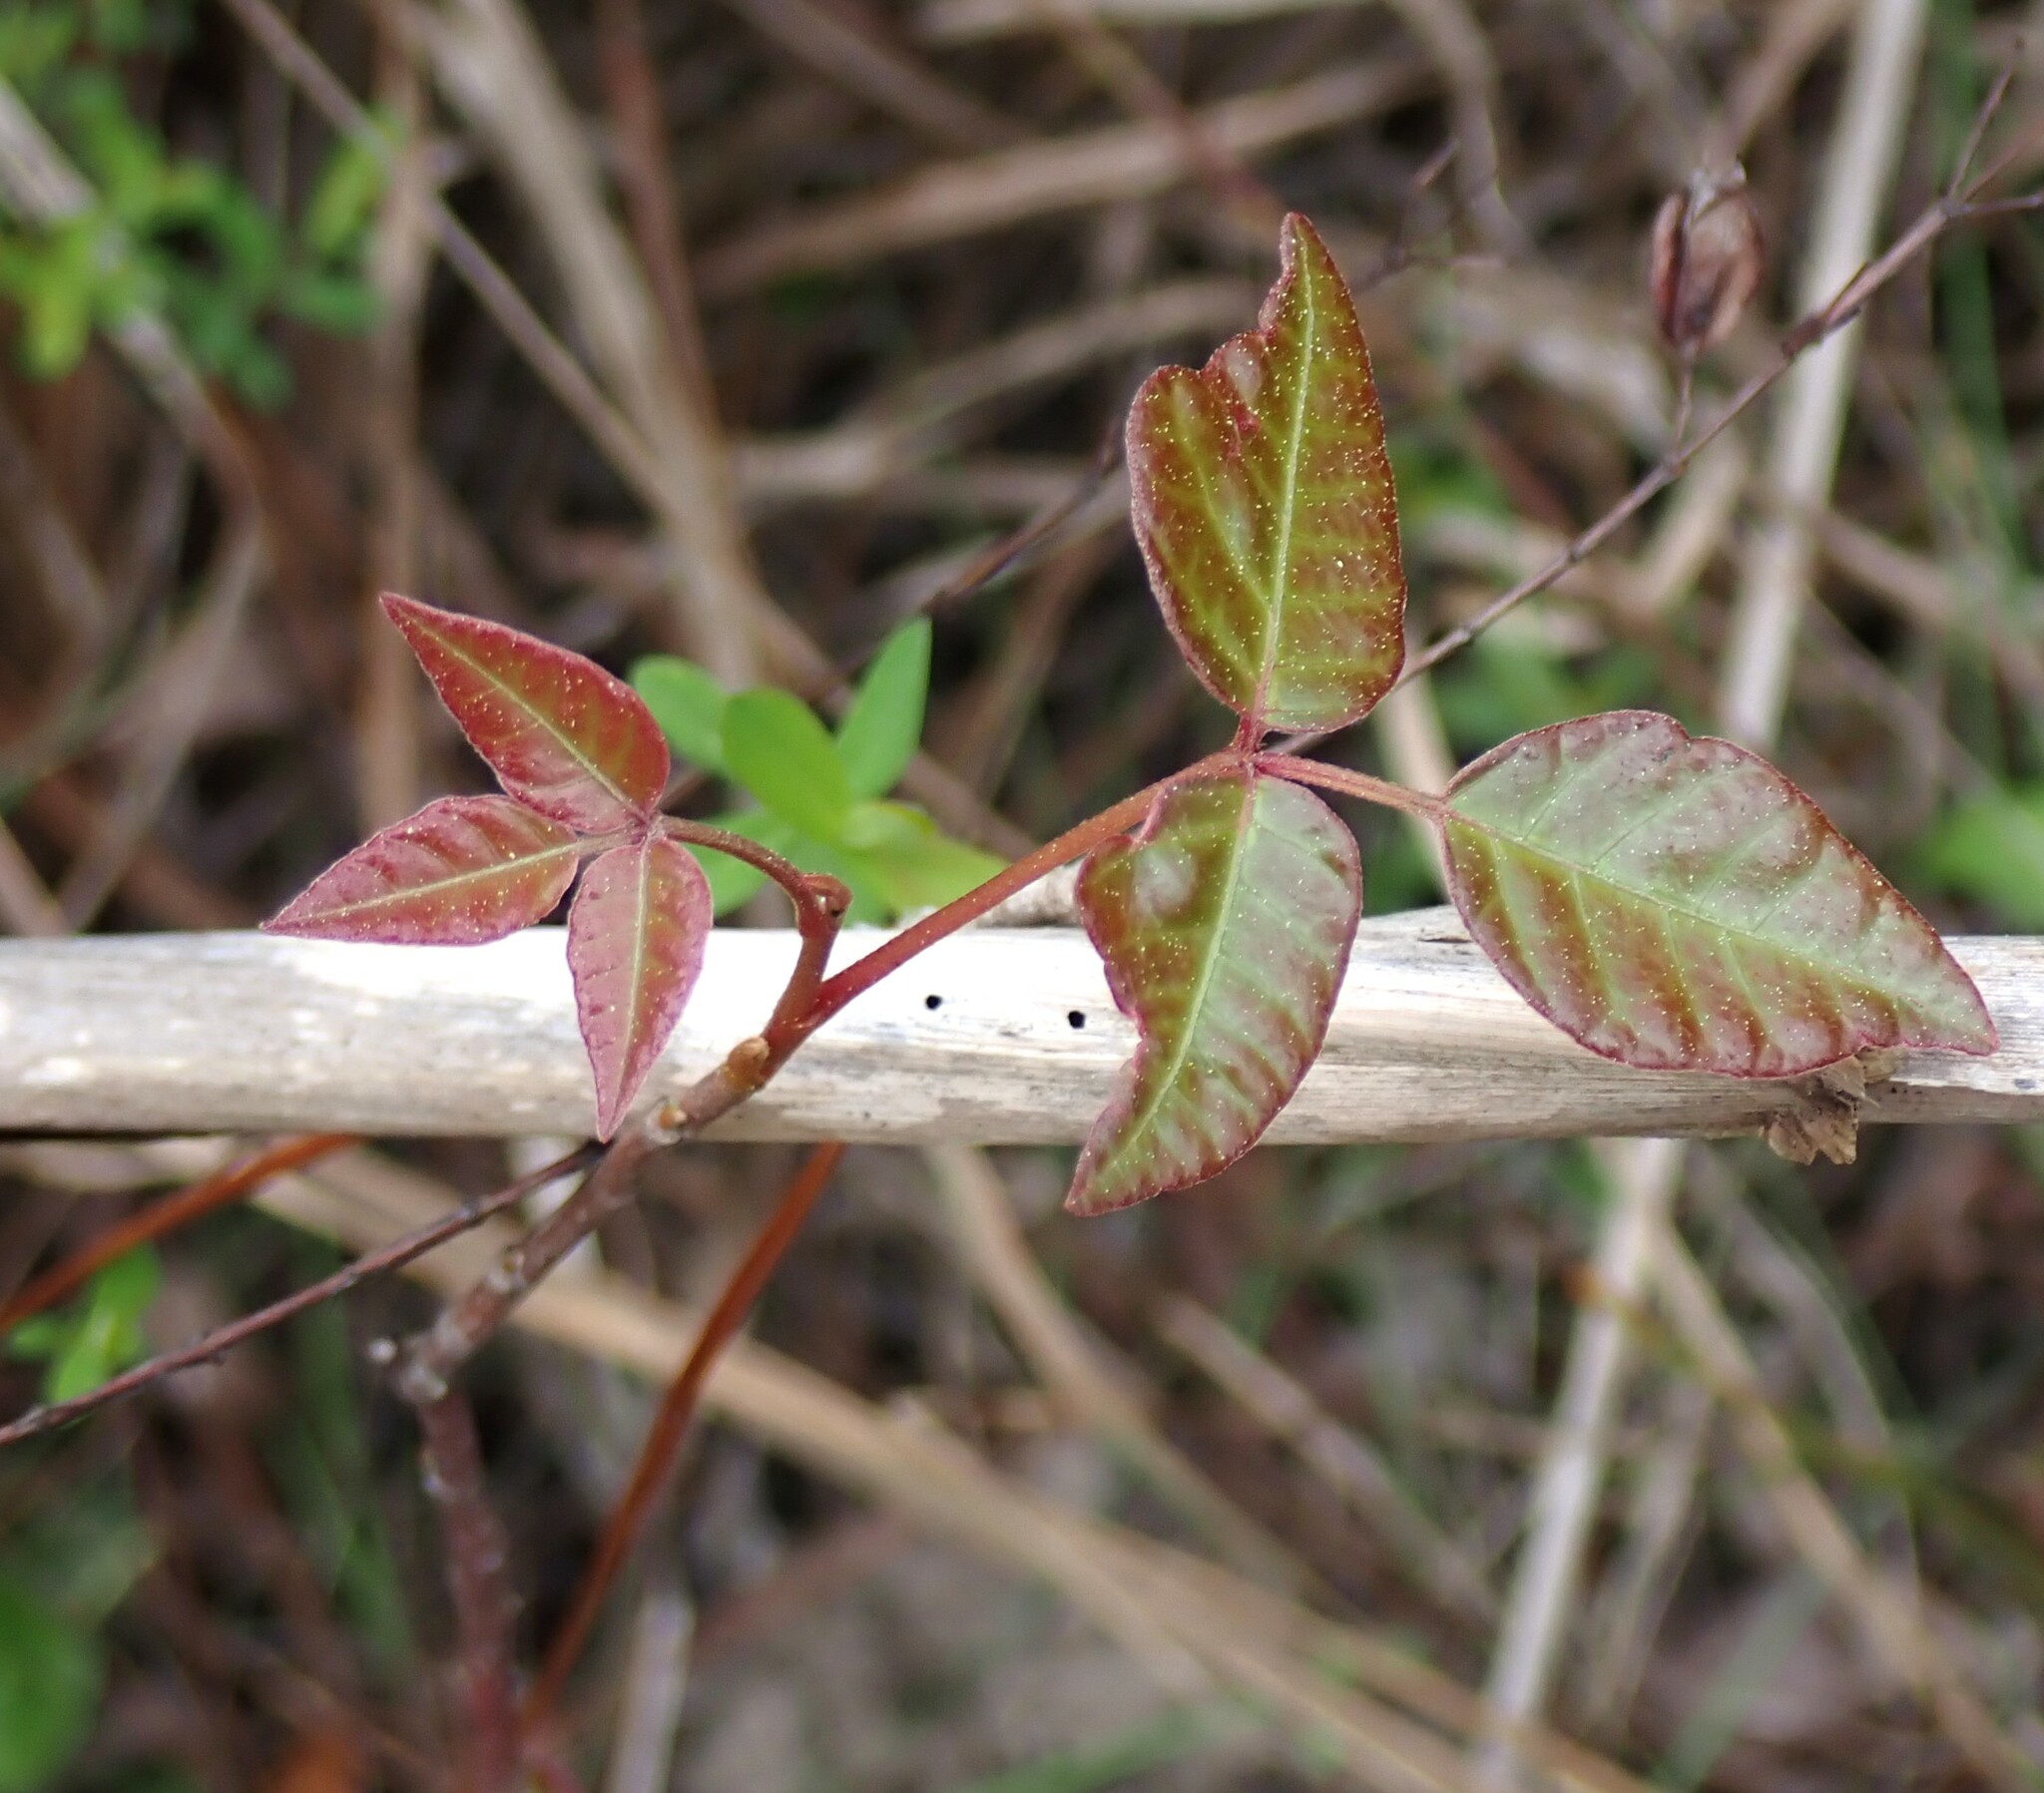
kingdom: Plantae
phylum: Tracheophyta
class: Magnoliopsida
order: Sapindales
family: Anacardiaceae
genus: Toxicodendron
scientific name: Toxicodendron radicans
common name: Poison ivy
